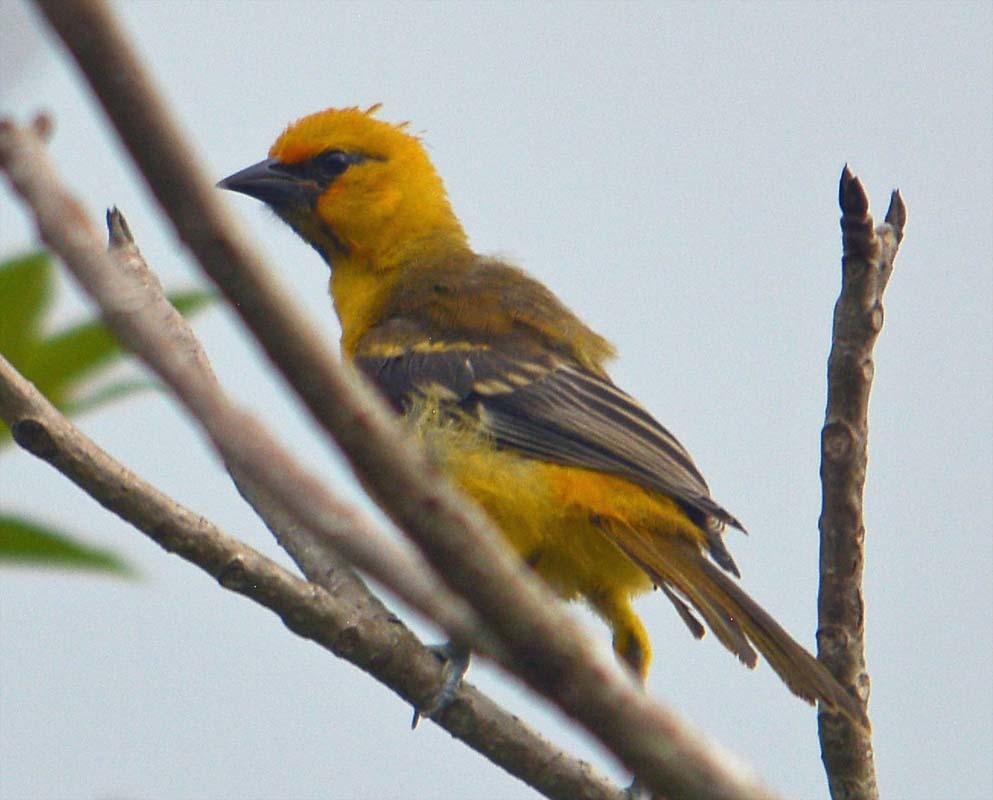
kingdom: Animalia
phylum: Chordata
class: Aves
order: Passeriformes
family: Icteridae
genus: Icterus
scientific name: Icterus gularis
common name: Altamira oriole
